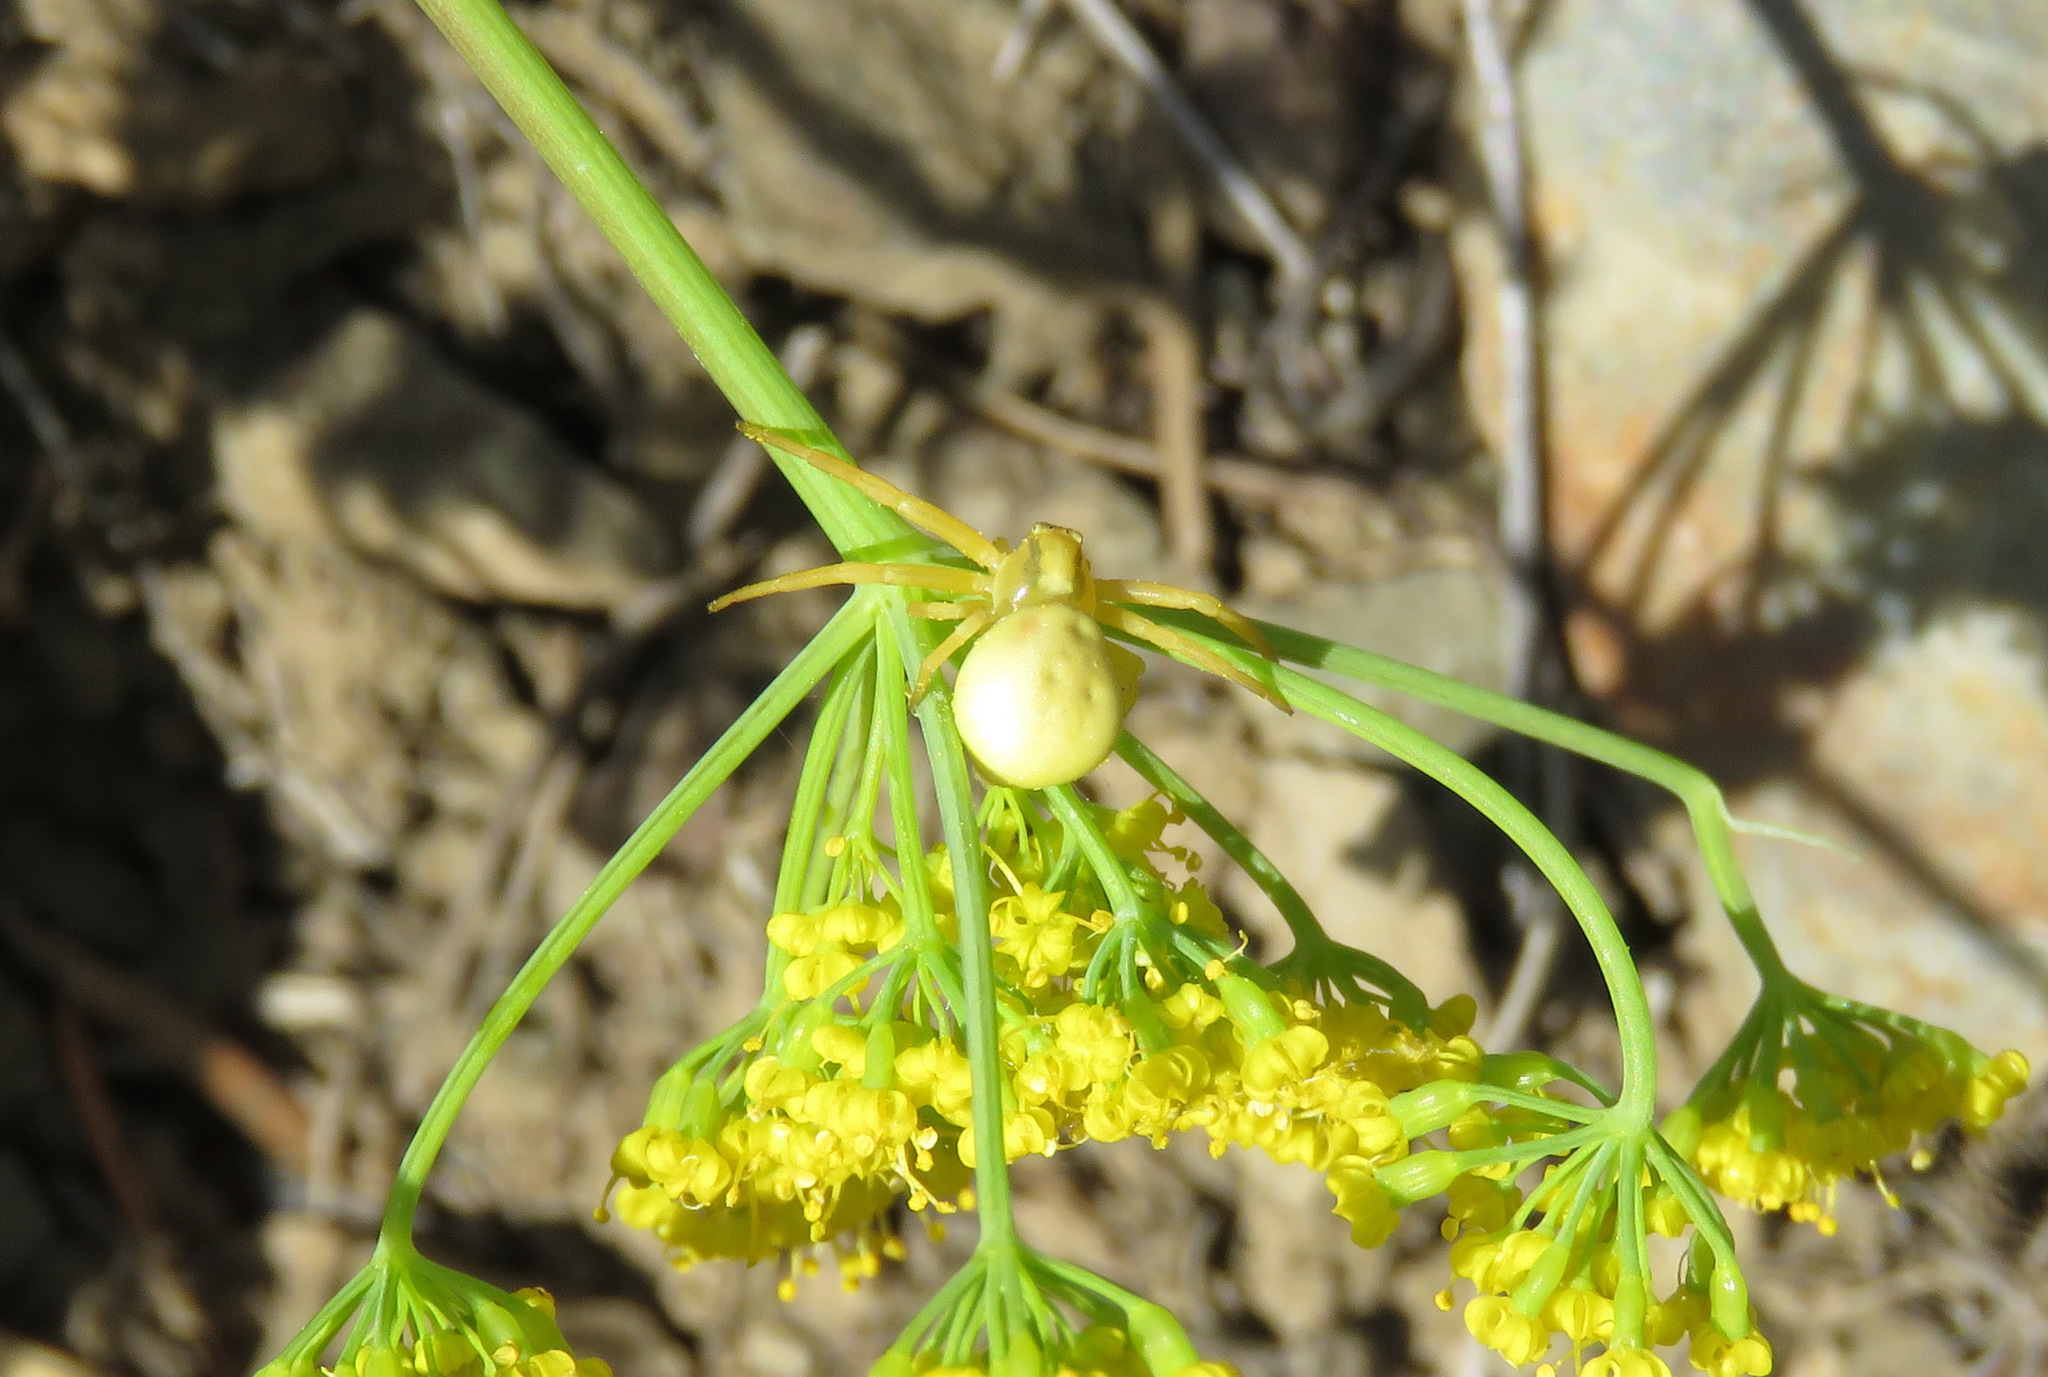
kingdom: Animalia
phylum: Arthropoda
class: Arachnida
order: Araneae
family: Thomisidae
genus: Misumena
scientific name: Misumena vatia
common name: Goldenrod crab spider
